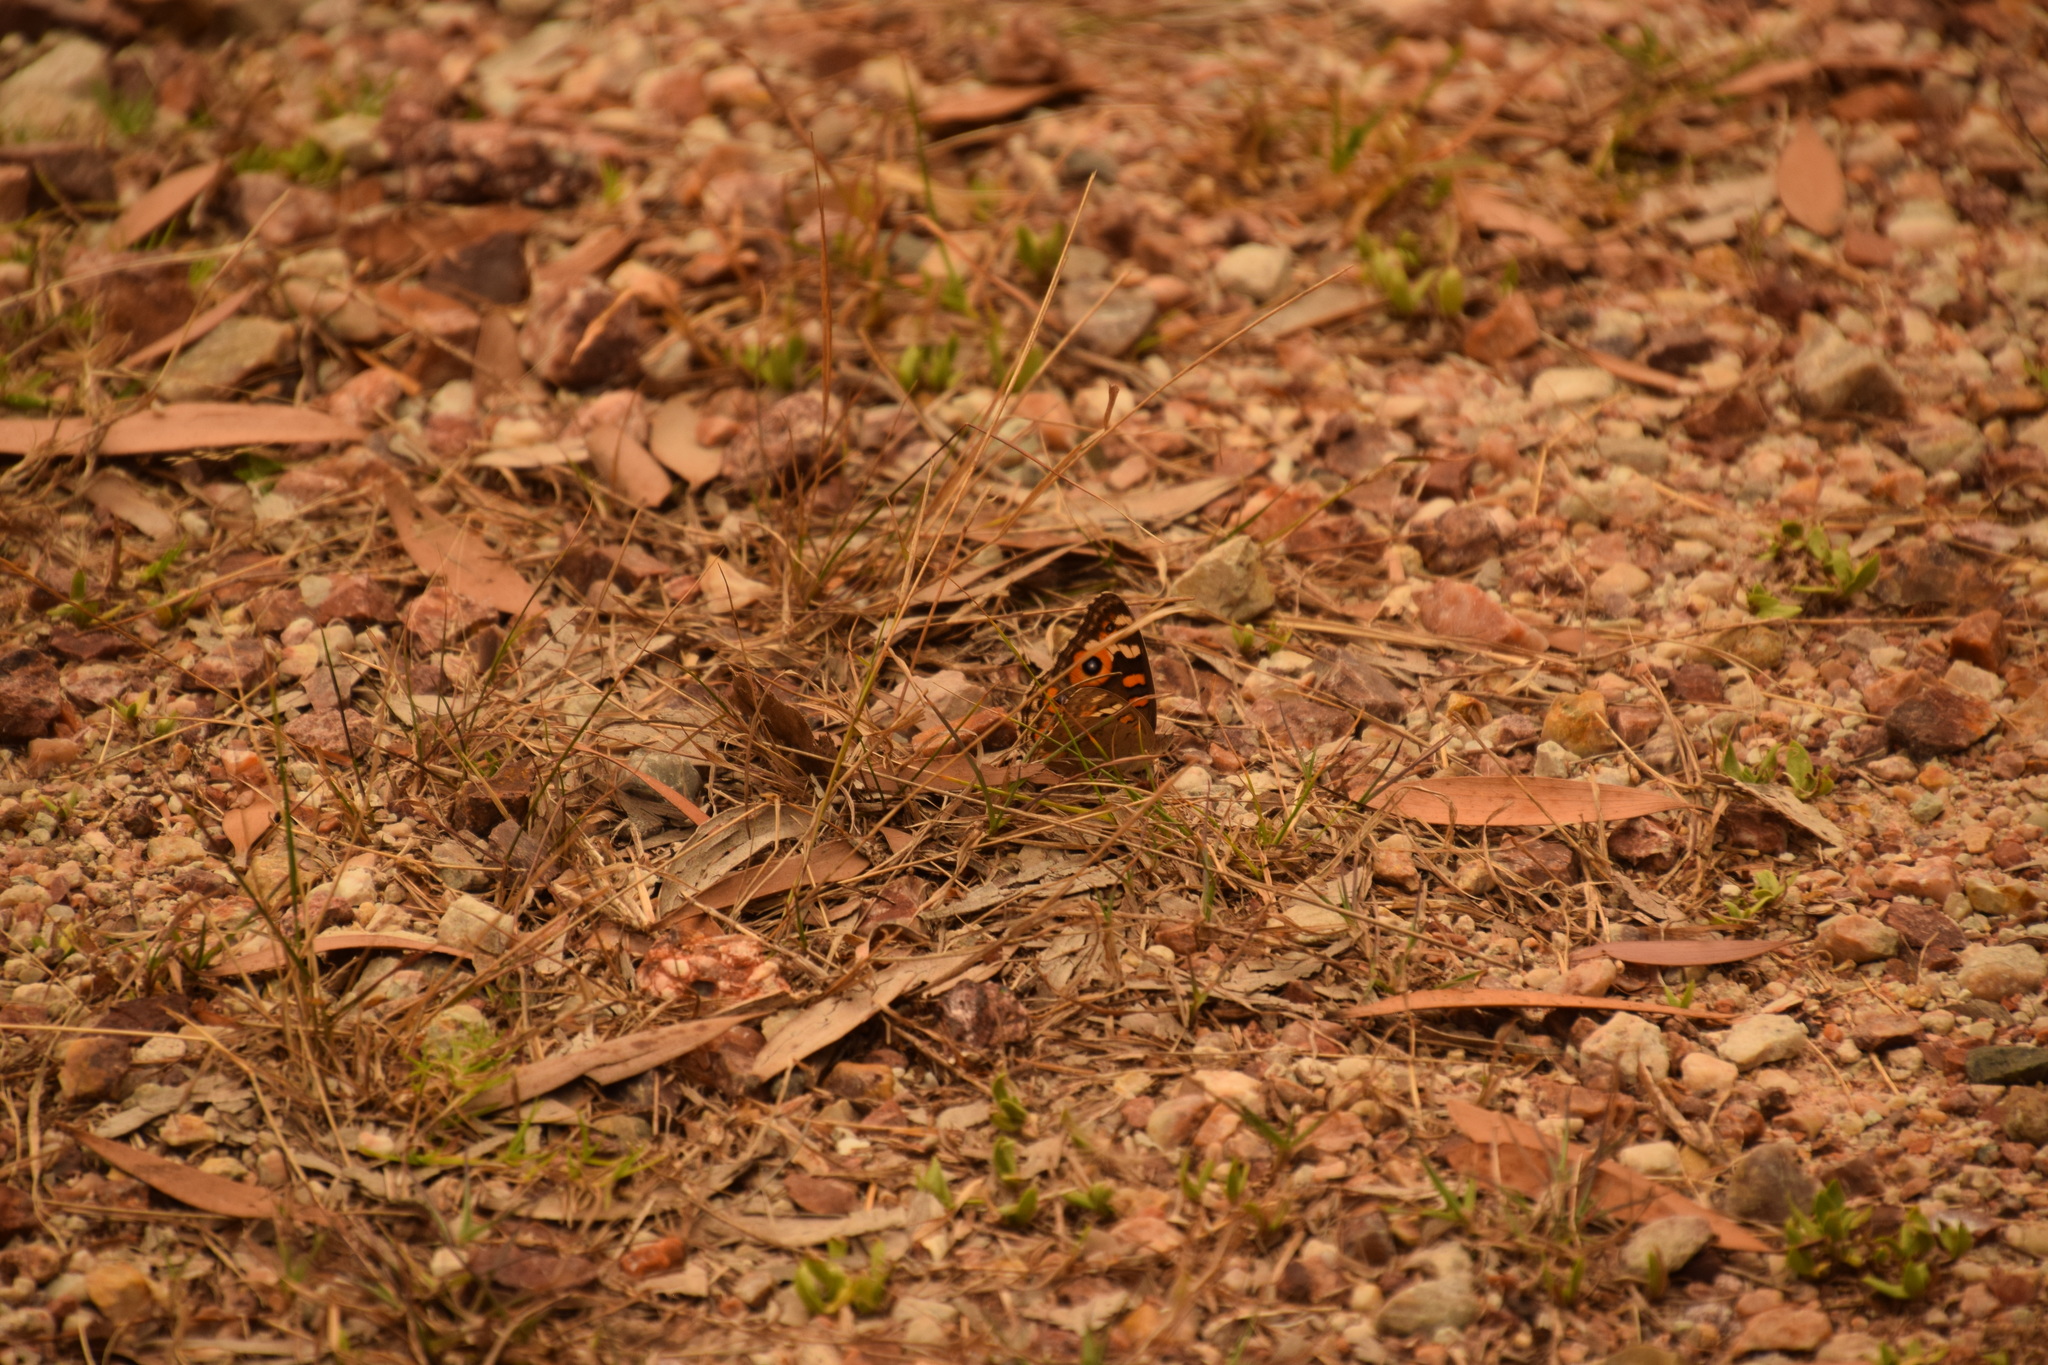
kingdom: Animalia
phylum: Arthropoda
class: Insecta
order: Lepidoptera
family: Nymphalidae
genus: Junonia
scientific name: Junonia villida
